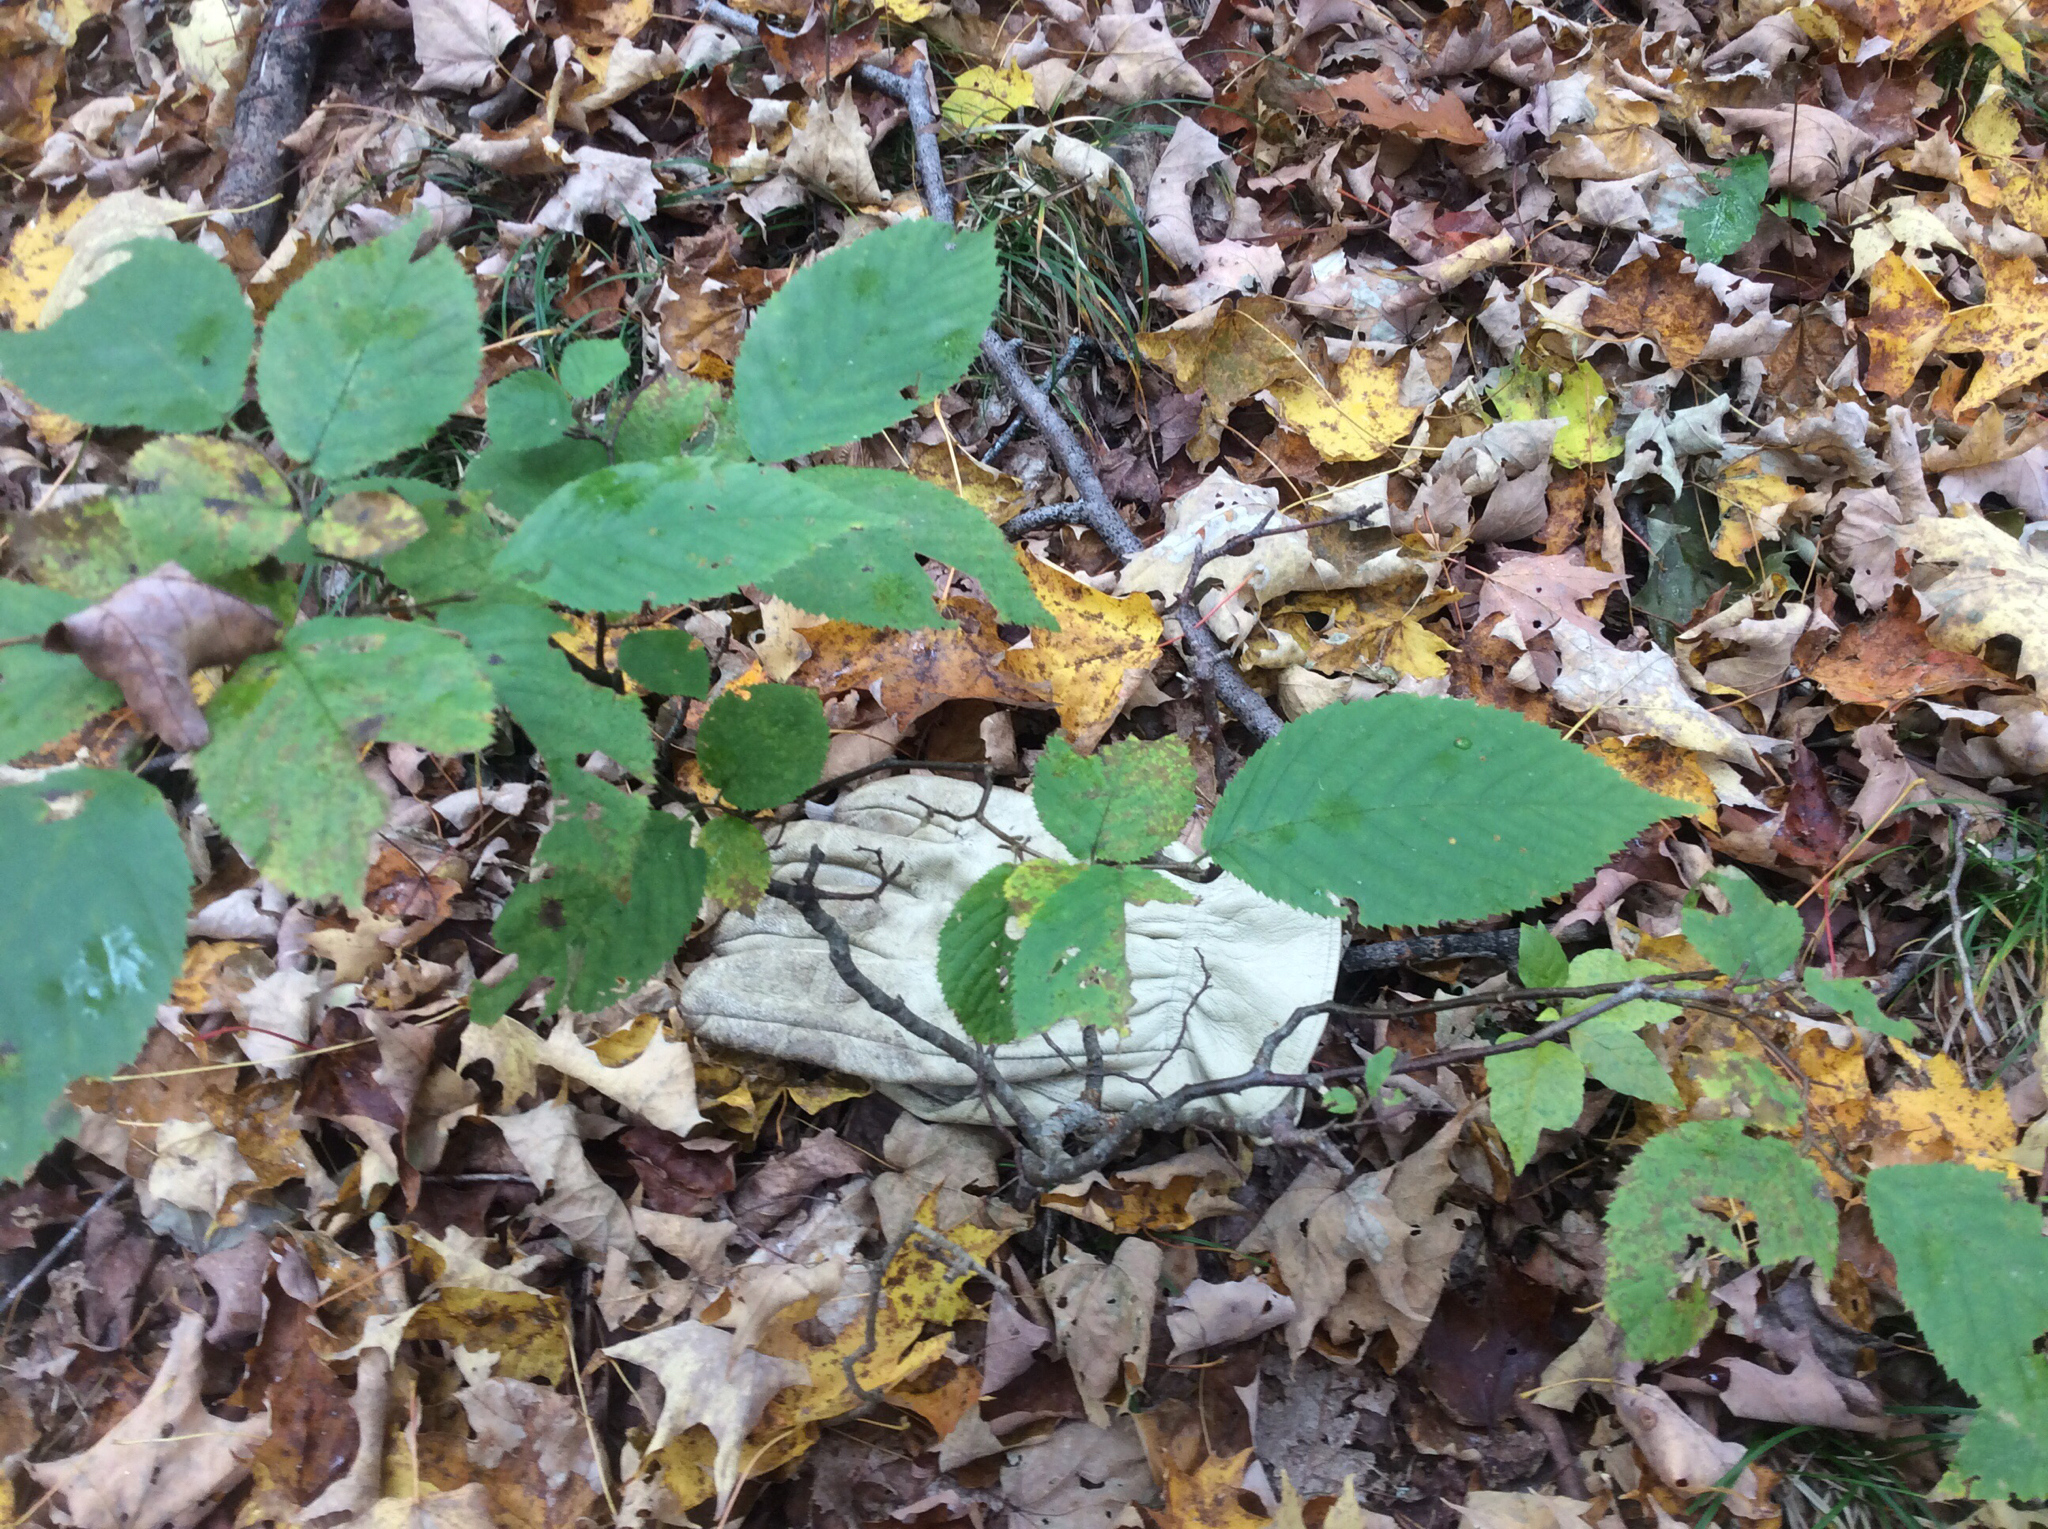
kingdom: Plantae
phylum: Tracheophyta
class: Magnoliopsida
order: Fagales
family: Betulaceae
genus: Ostrya
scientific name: Ostrya virginiana
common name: Ironwood
